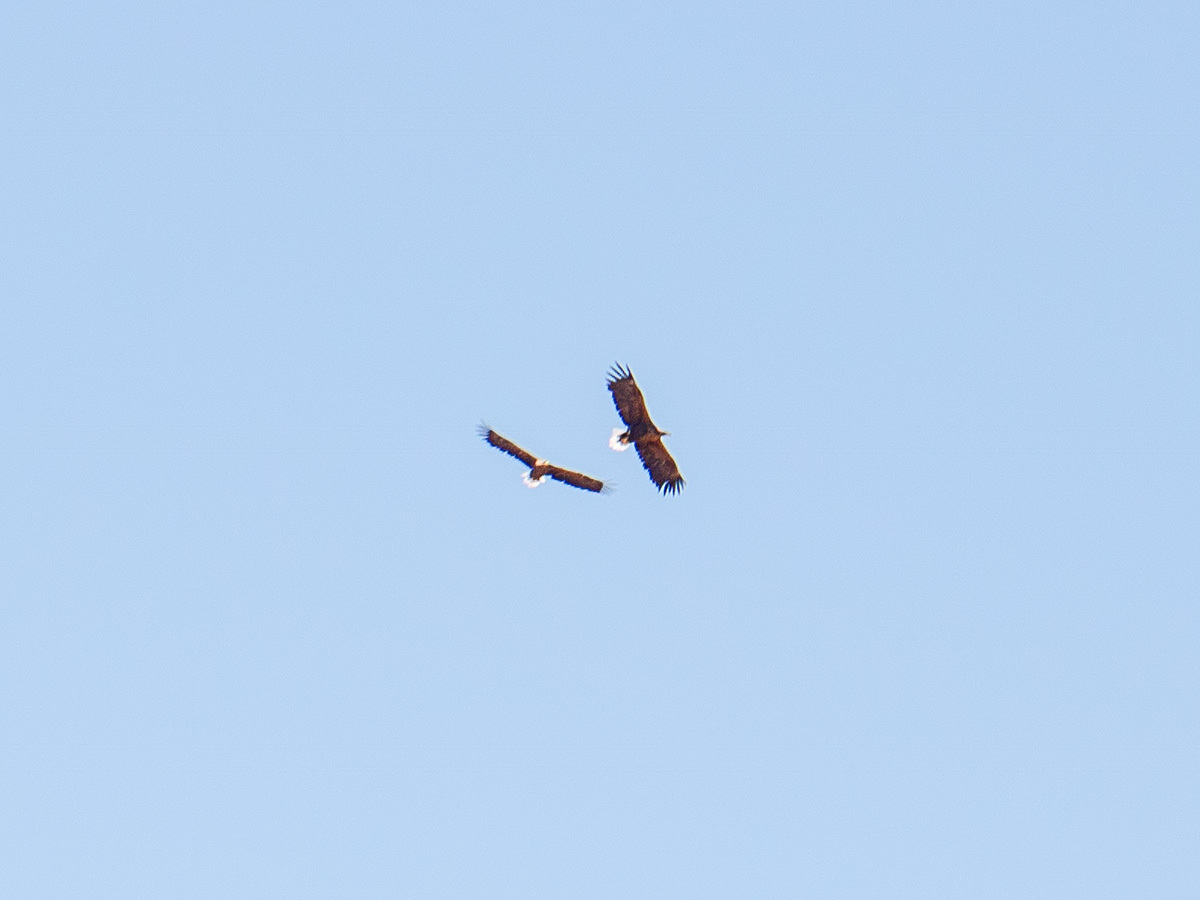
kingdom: Animalia
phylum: Chordata
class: Aves
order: Accipitriformes
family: Accipitridae
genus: Haliaeetus
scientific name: Haliaeetus albicilla
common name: White-tailed eagle
